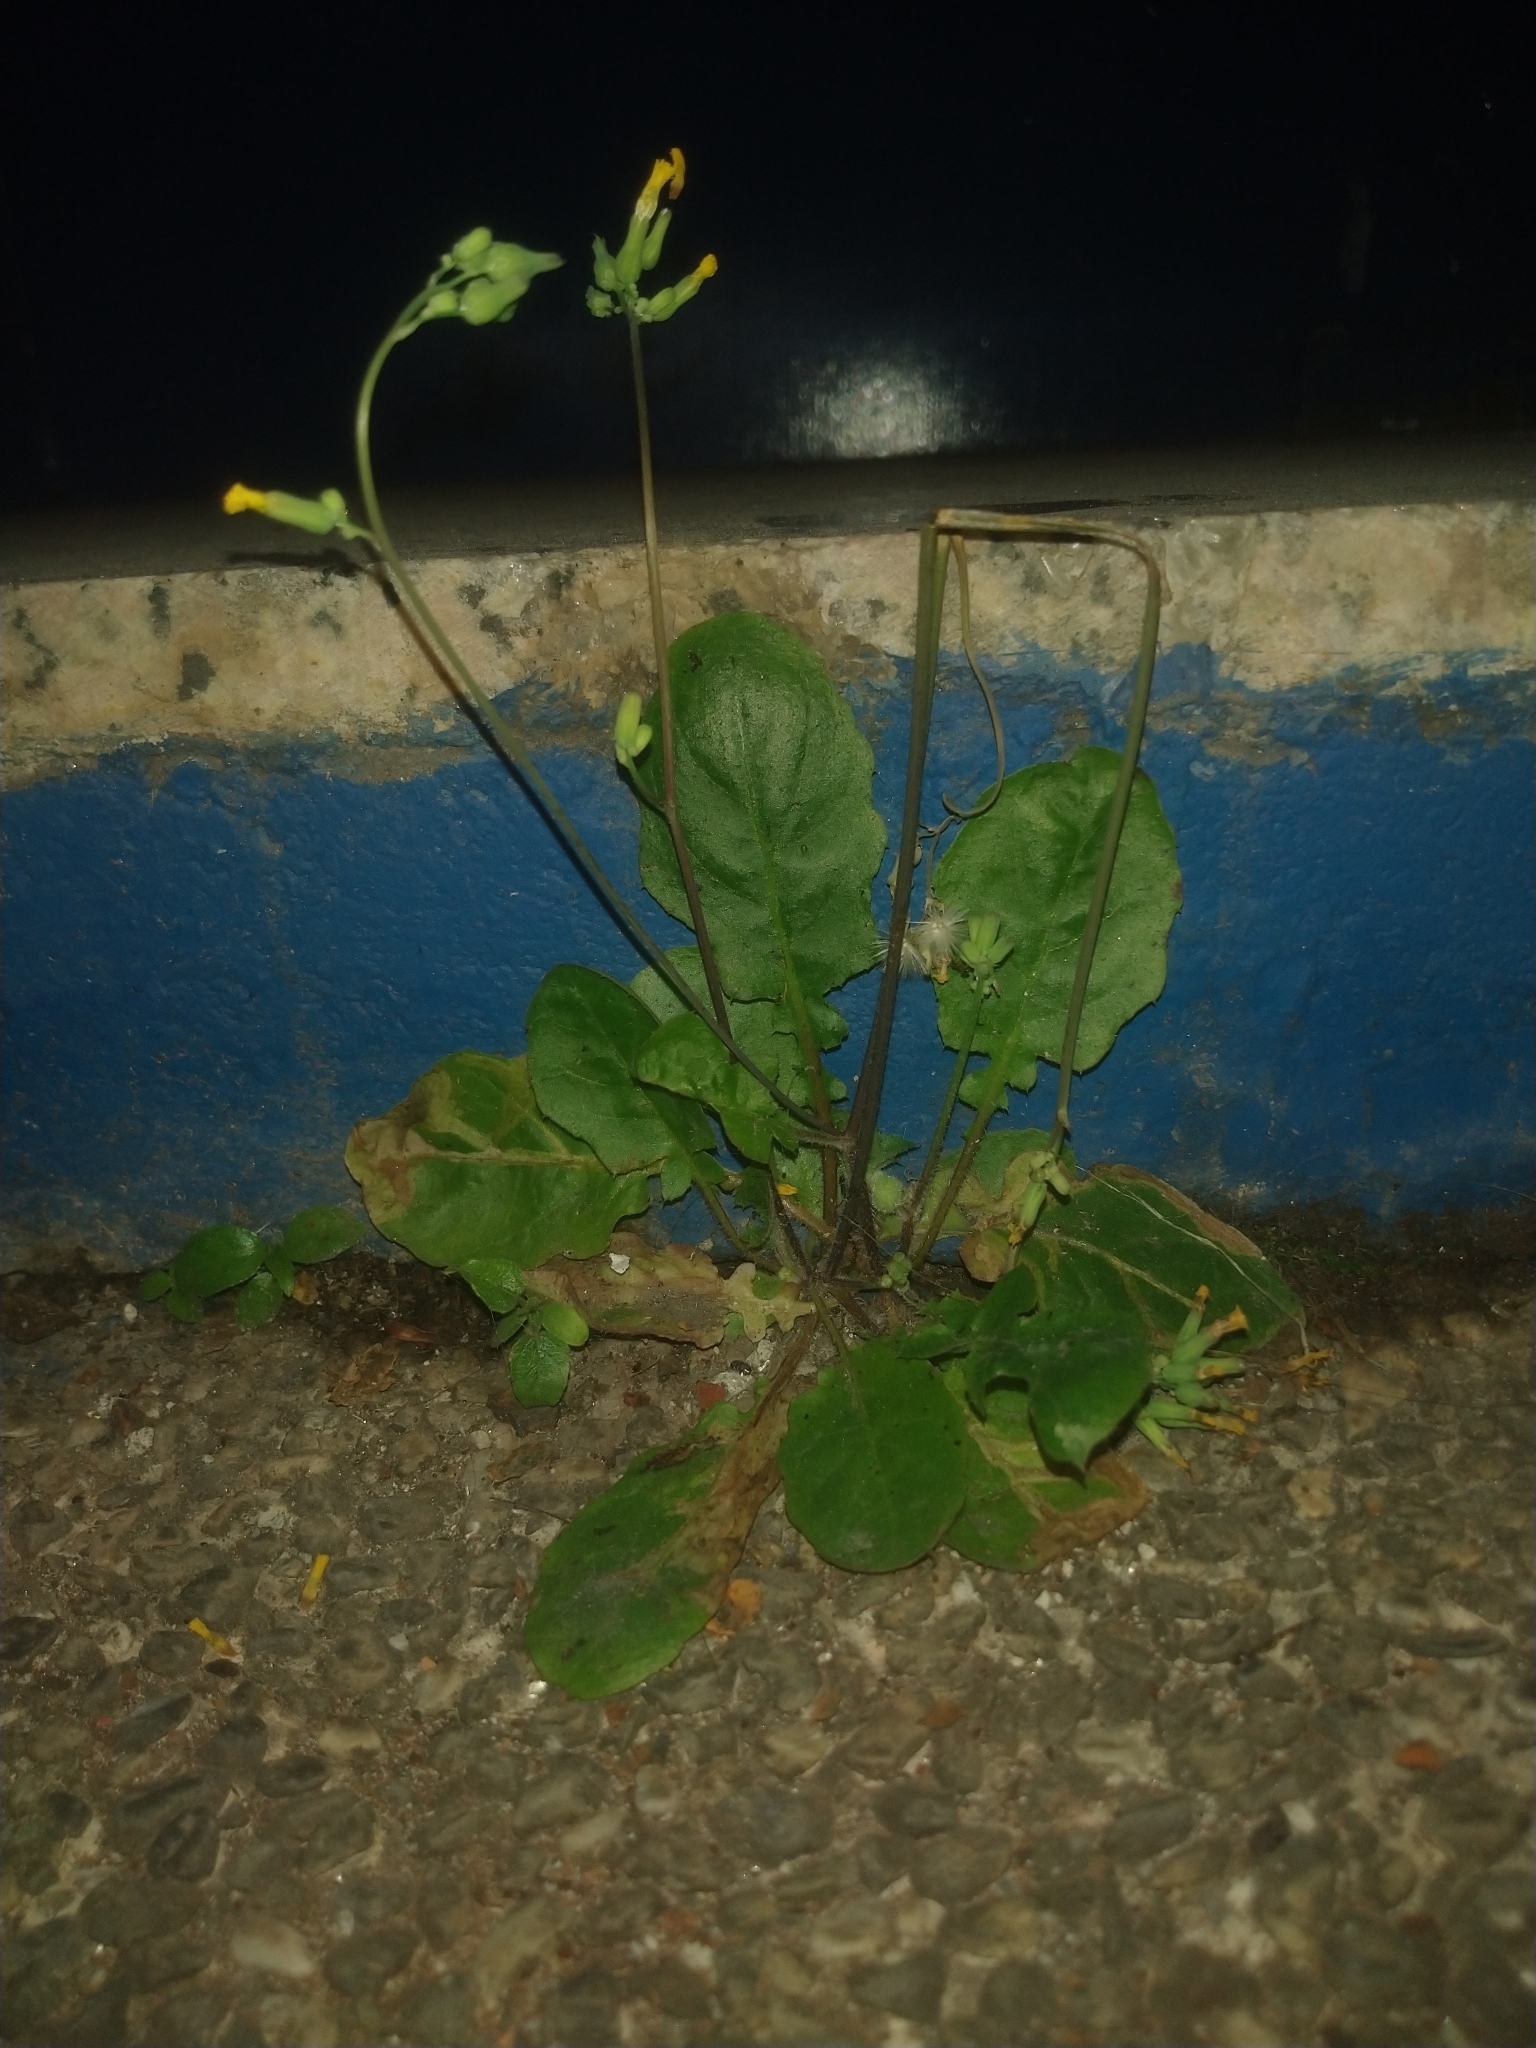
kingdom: Plantae
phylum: Tracheophyta
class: Magnoliopsida
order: Asterales
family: Asteraceae
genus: Youngia
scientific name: Youngia japonica
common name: Oriental false hawksbeard
